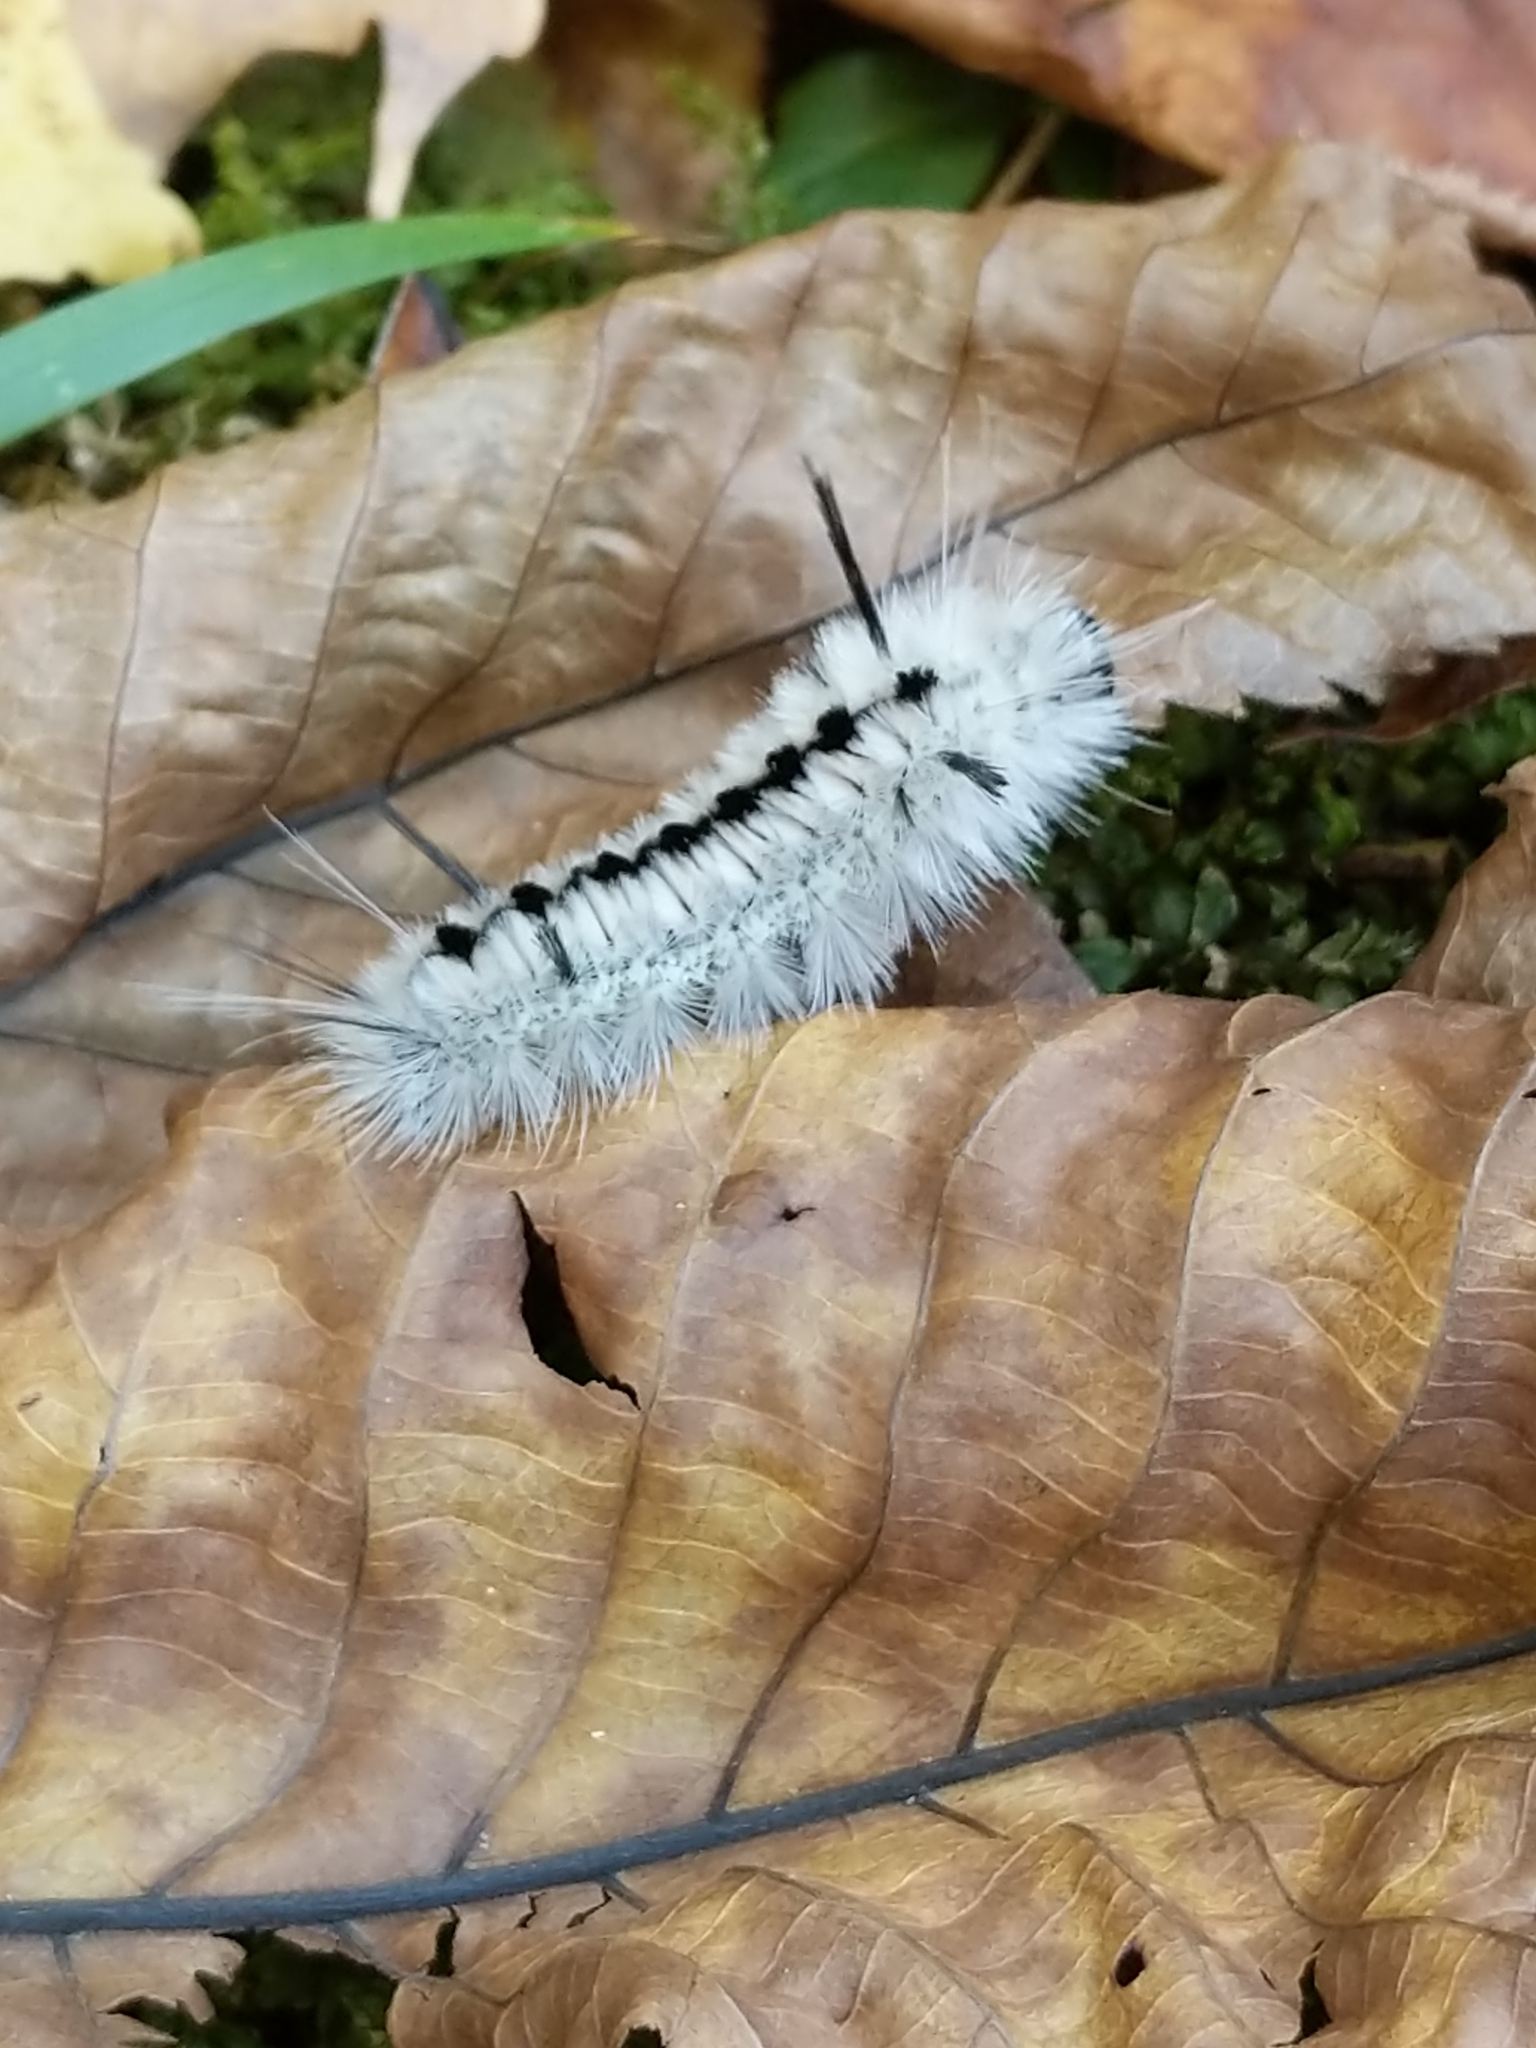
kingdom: Animalia
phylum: Arthropoda
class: Insecta
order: Lepidoptera
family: Erebidae
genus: Lophocampa
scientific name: Lophocampa caryae
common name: Hickory tussock moth
